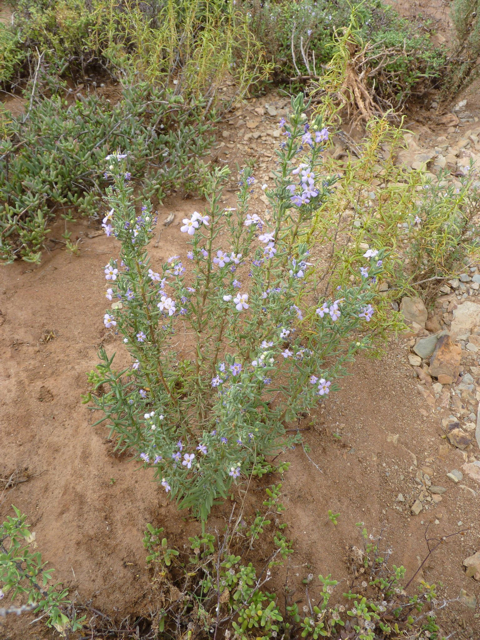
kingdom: Plantae
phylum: Tracheophyta
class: Magnoliopsida
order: Lamiales
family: Scrophulariaceae
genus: Chaenostoma
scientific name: Chaenostoma revolutum
